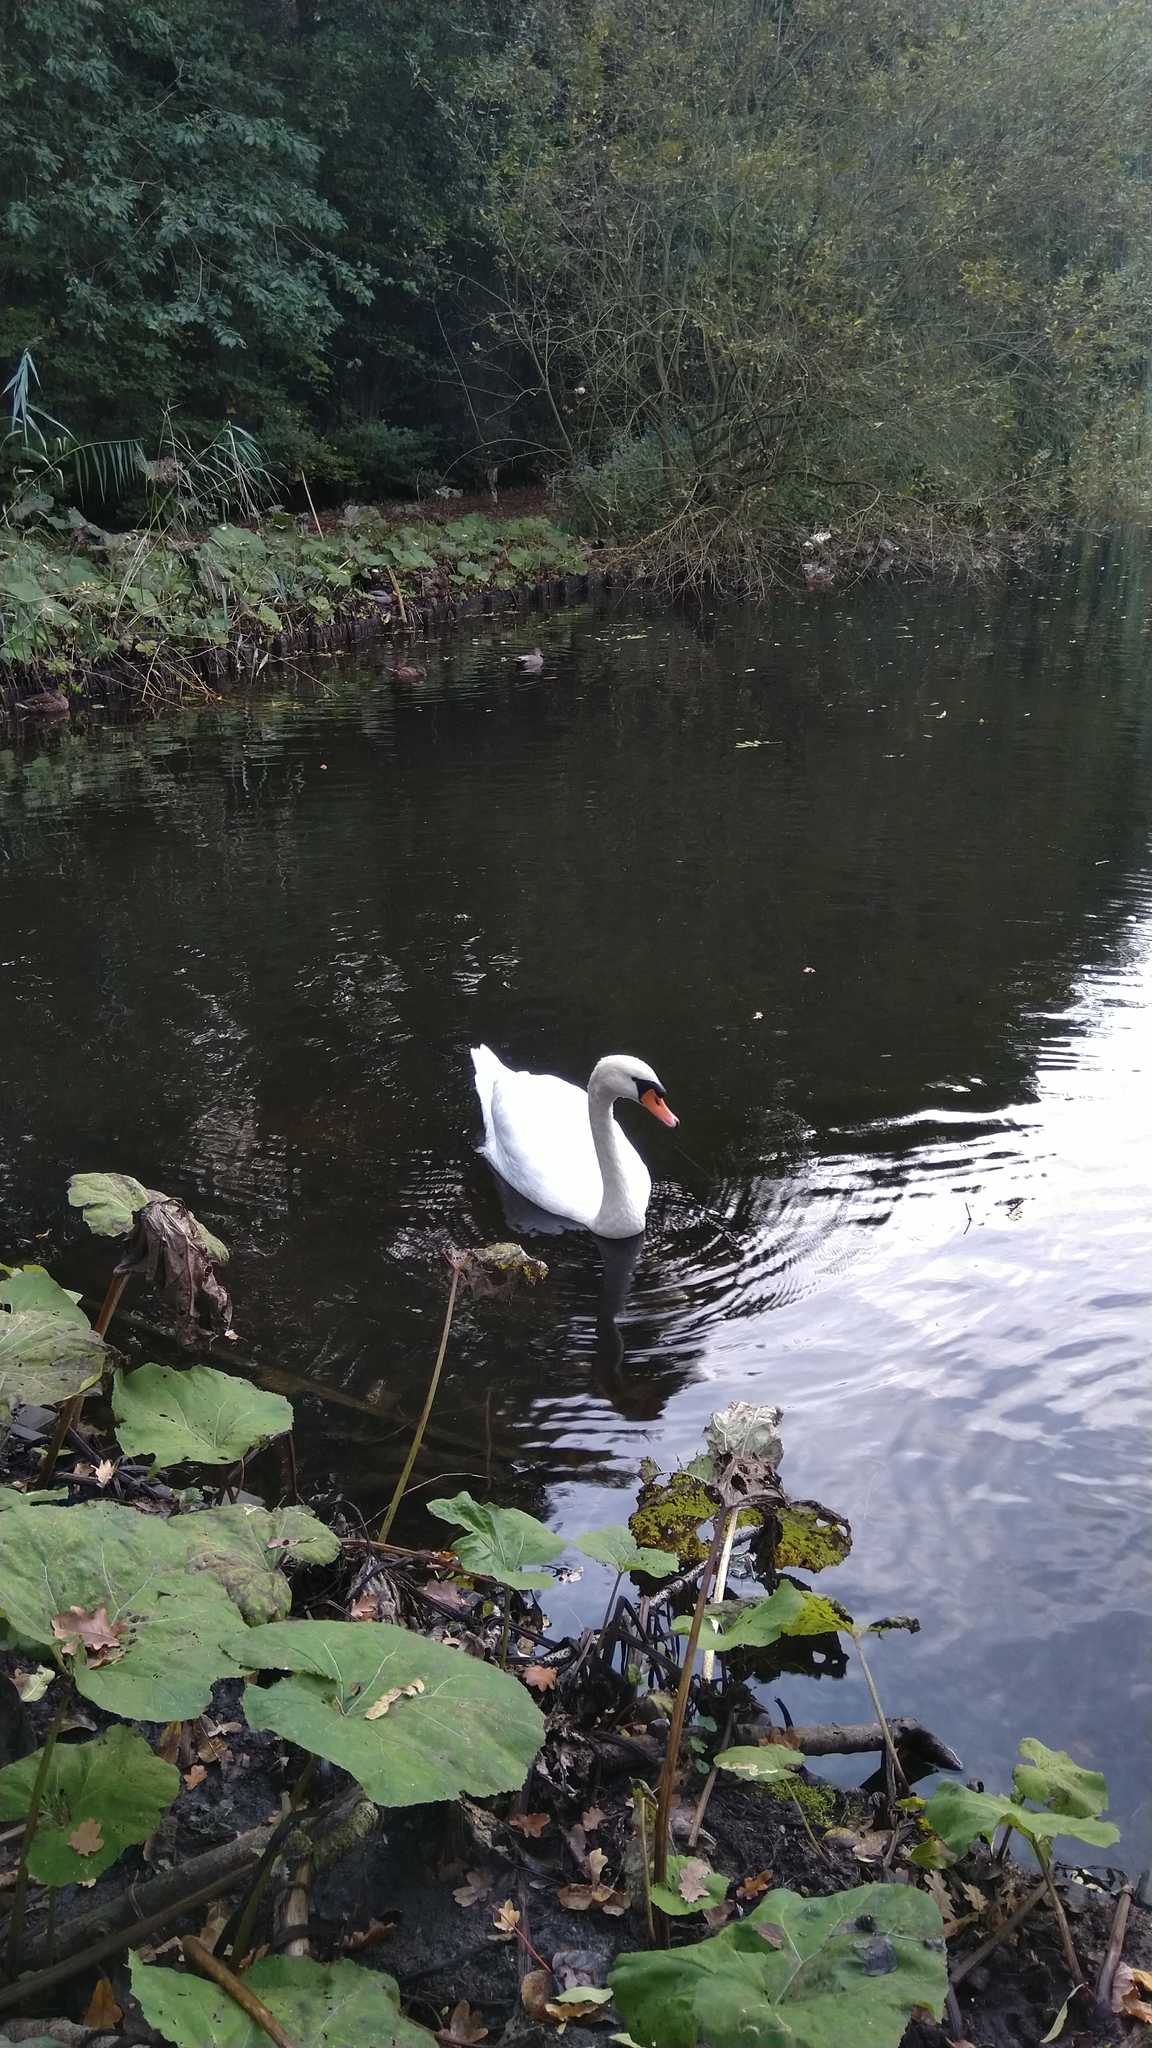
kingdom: Animalia
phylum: Chordata
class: Aves
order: Anseriformes
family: Anatidae
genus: Cygnus
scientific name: Cygnus olor
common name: Mute swan
